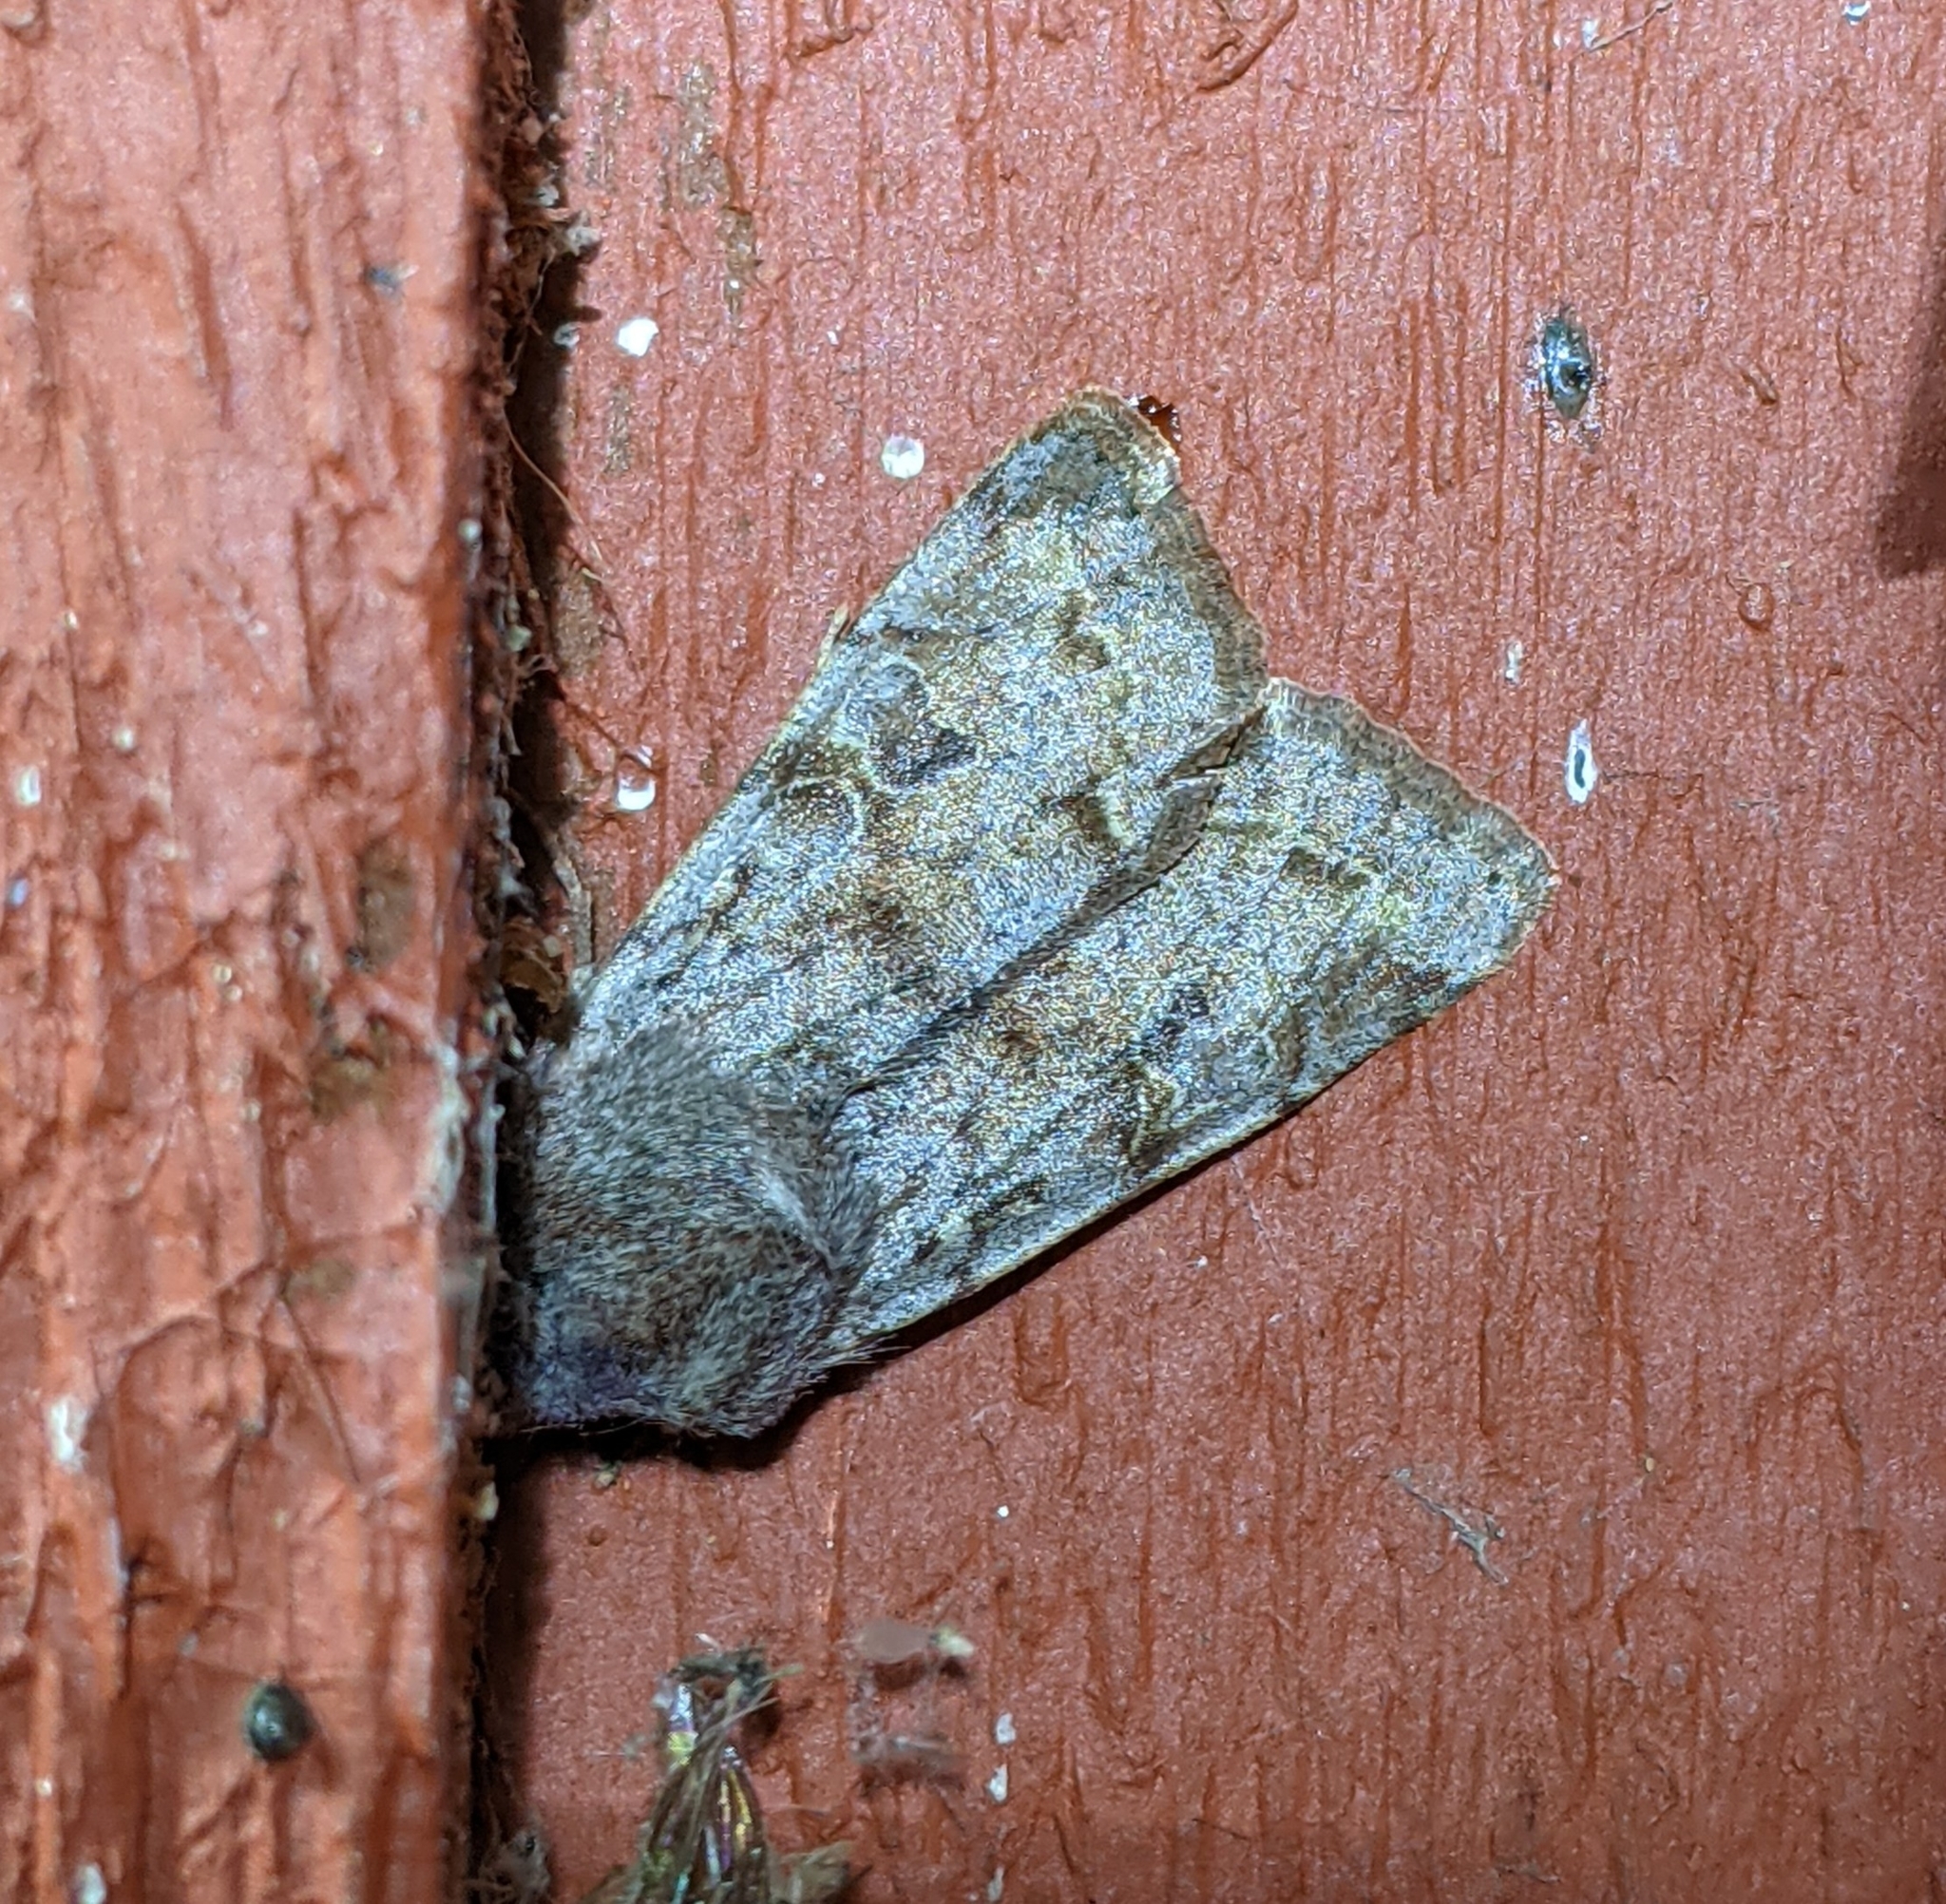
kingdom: Animalia
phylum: Arthropoda
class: Insecta
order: Lepidoptera
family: Noctuidae
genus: Orthosia
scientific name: Orthosia hibisci
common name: Green fruitworm
